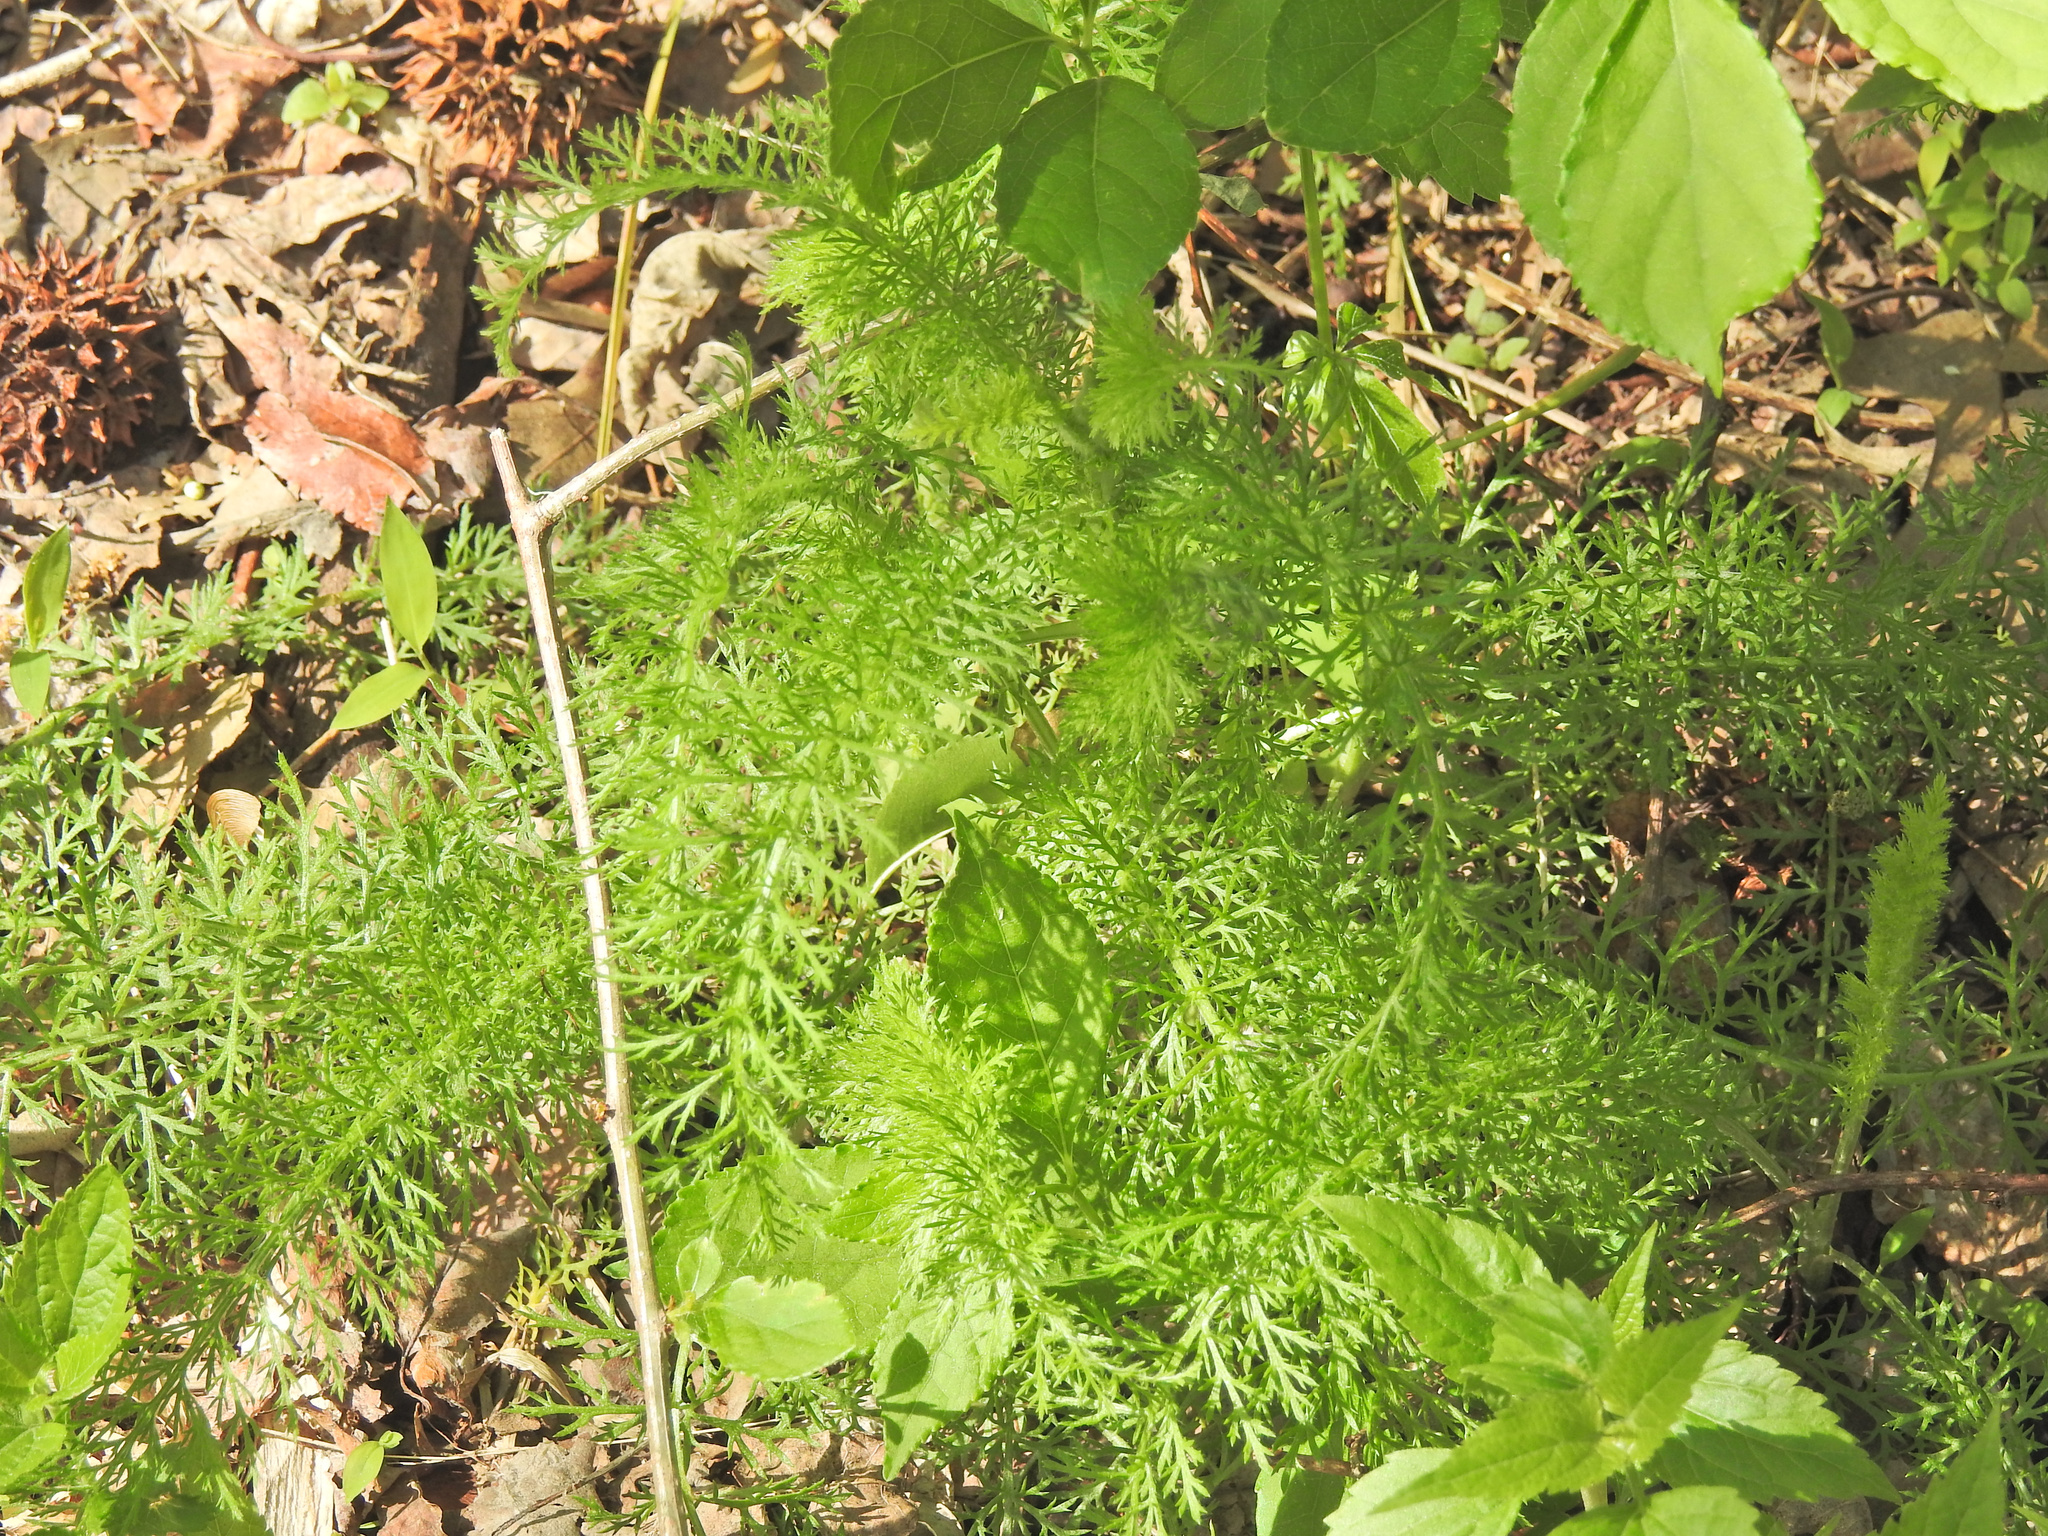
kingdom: Plantae
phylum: Tracheophyta
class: Magnoliopsida
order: Asterales
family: Asteraceae
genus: Achillea
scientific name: Achillea millefolium
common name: Yarrow
